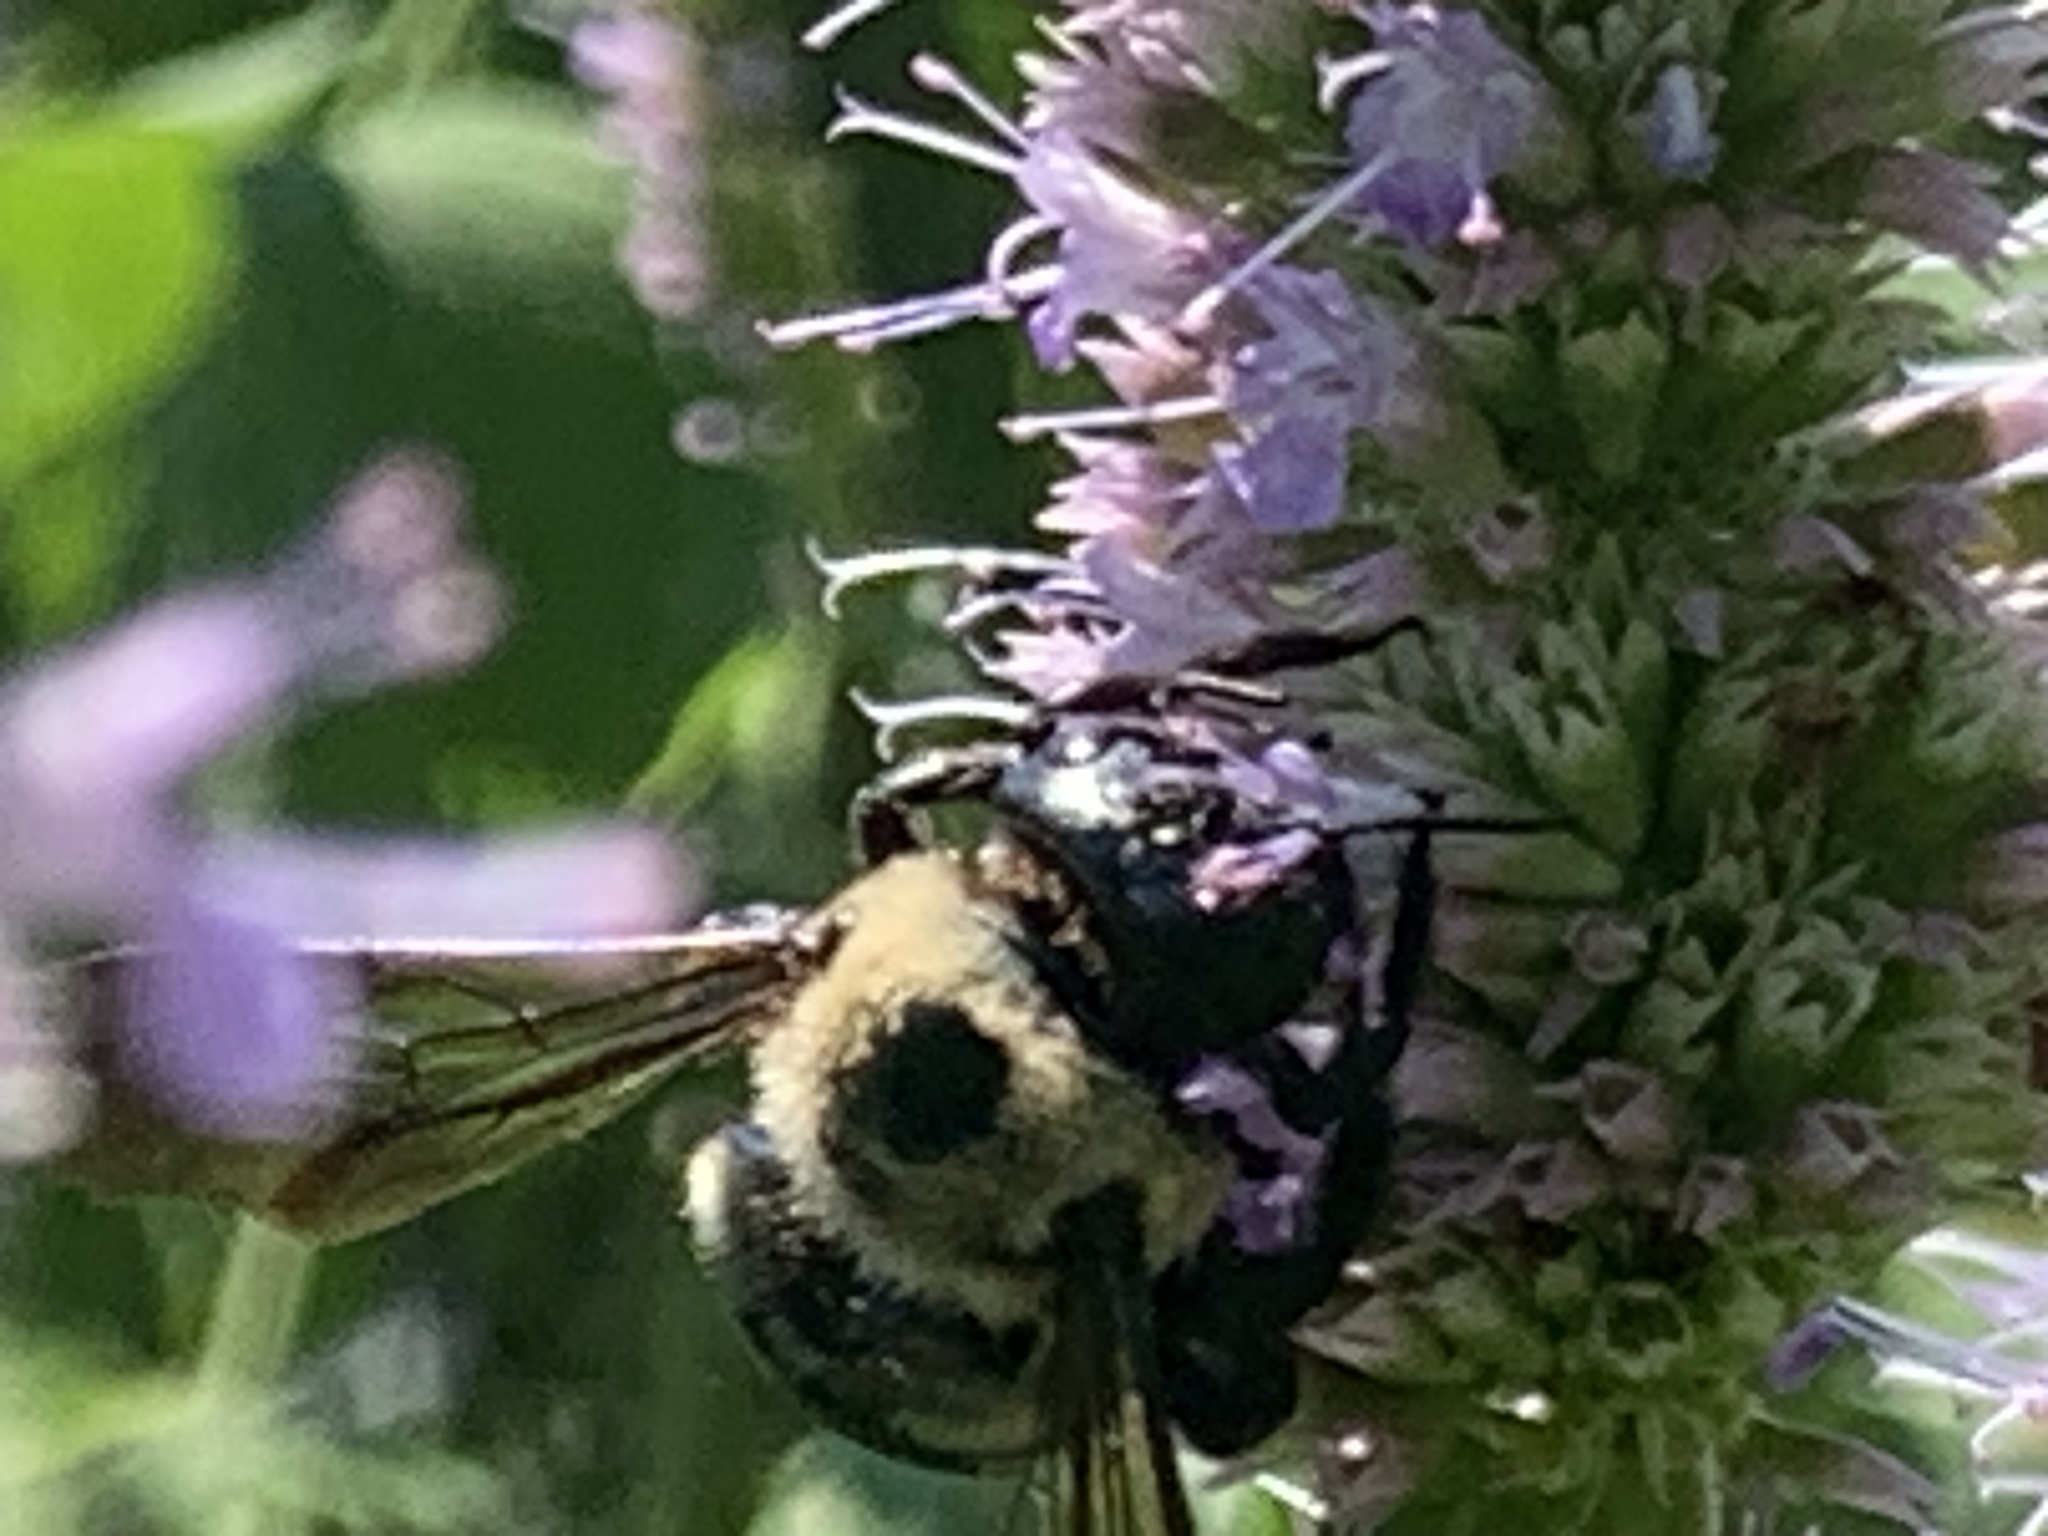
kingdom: Animalia
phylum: Arthropoda
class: Insecta
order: Hymenoptera
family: Apidae
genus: Xylocopa
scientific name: Xylocopa virginica
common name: Carpenter bee
